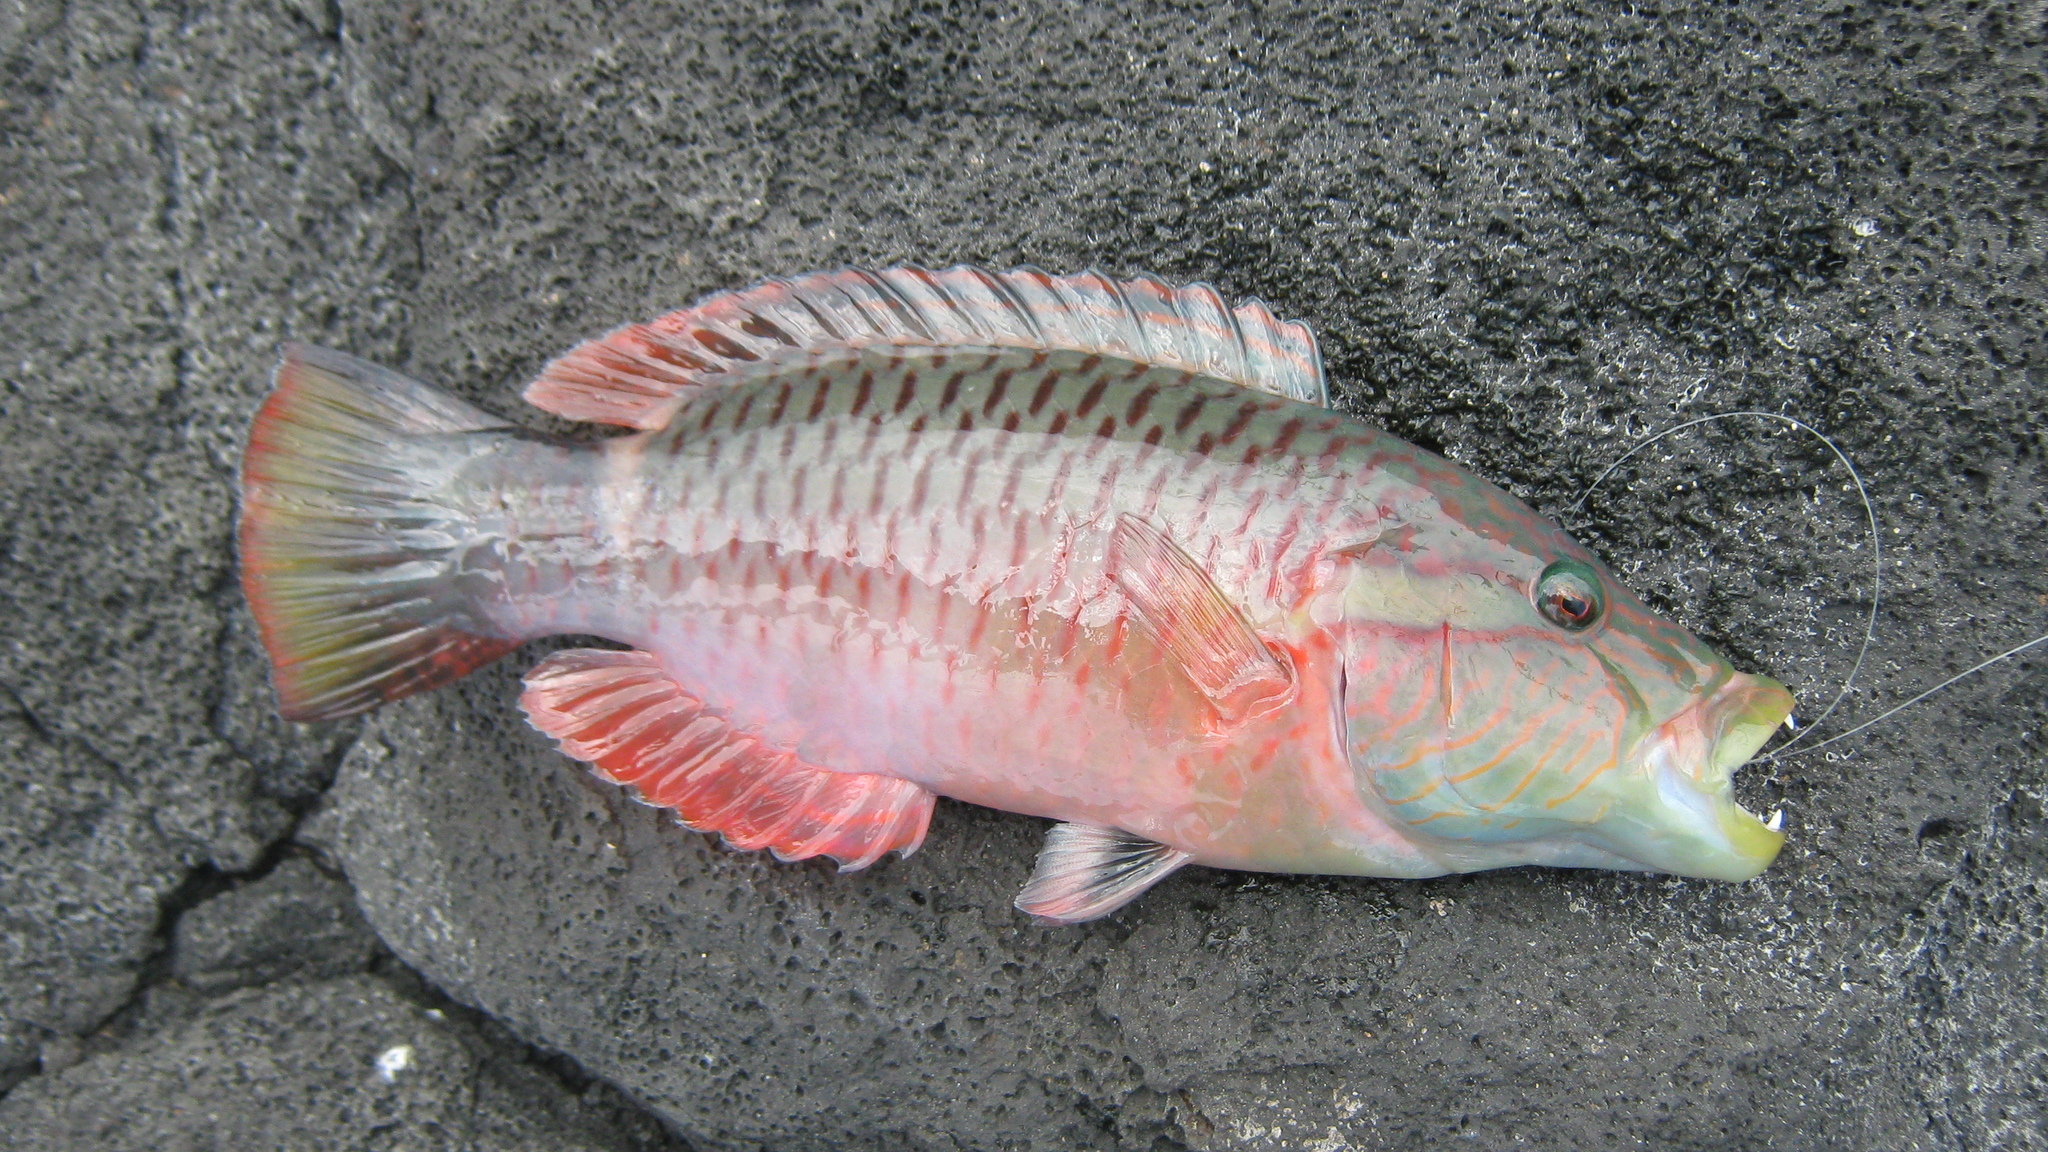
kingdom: Animalia
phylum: Chordata
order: Perciformes
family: Labridae
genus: Oxycheilinus
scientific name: Oxycheilinus unifasciatus
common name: Ringtail maori wrasse
